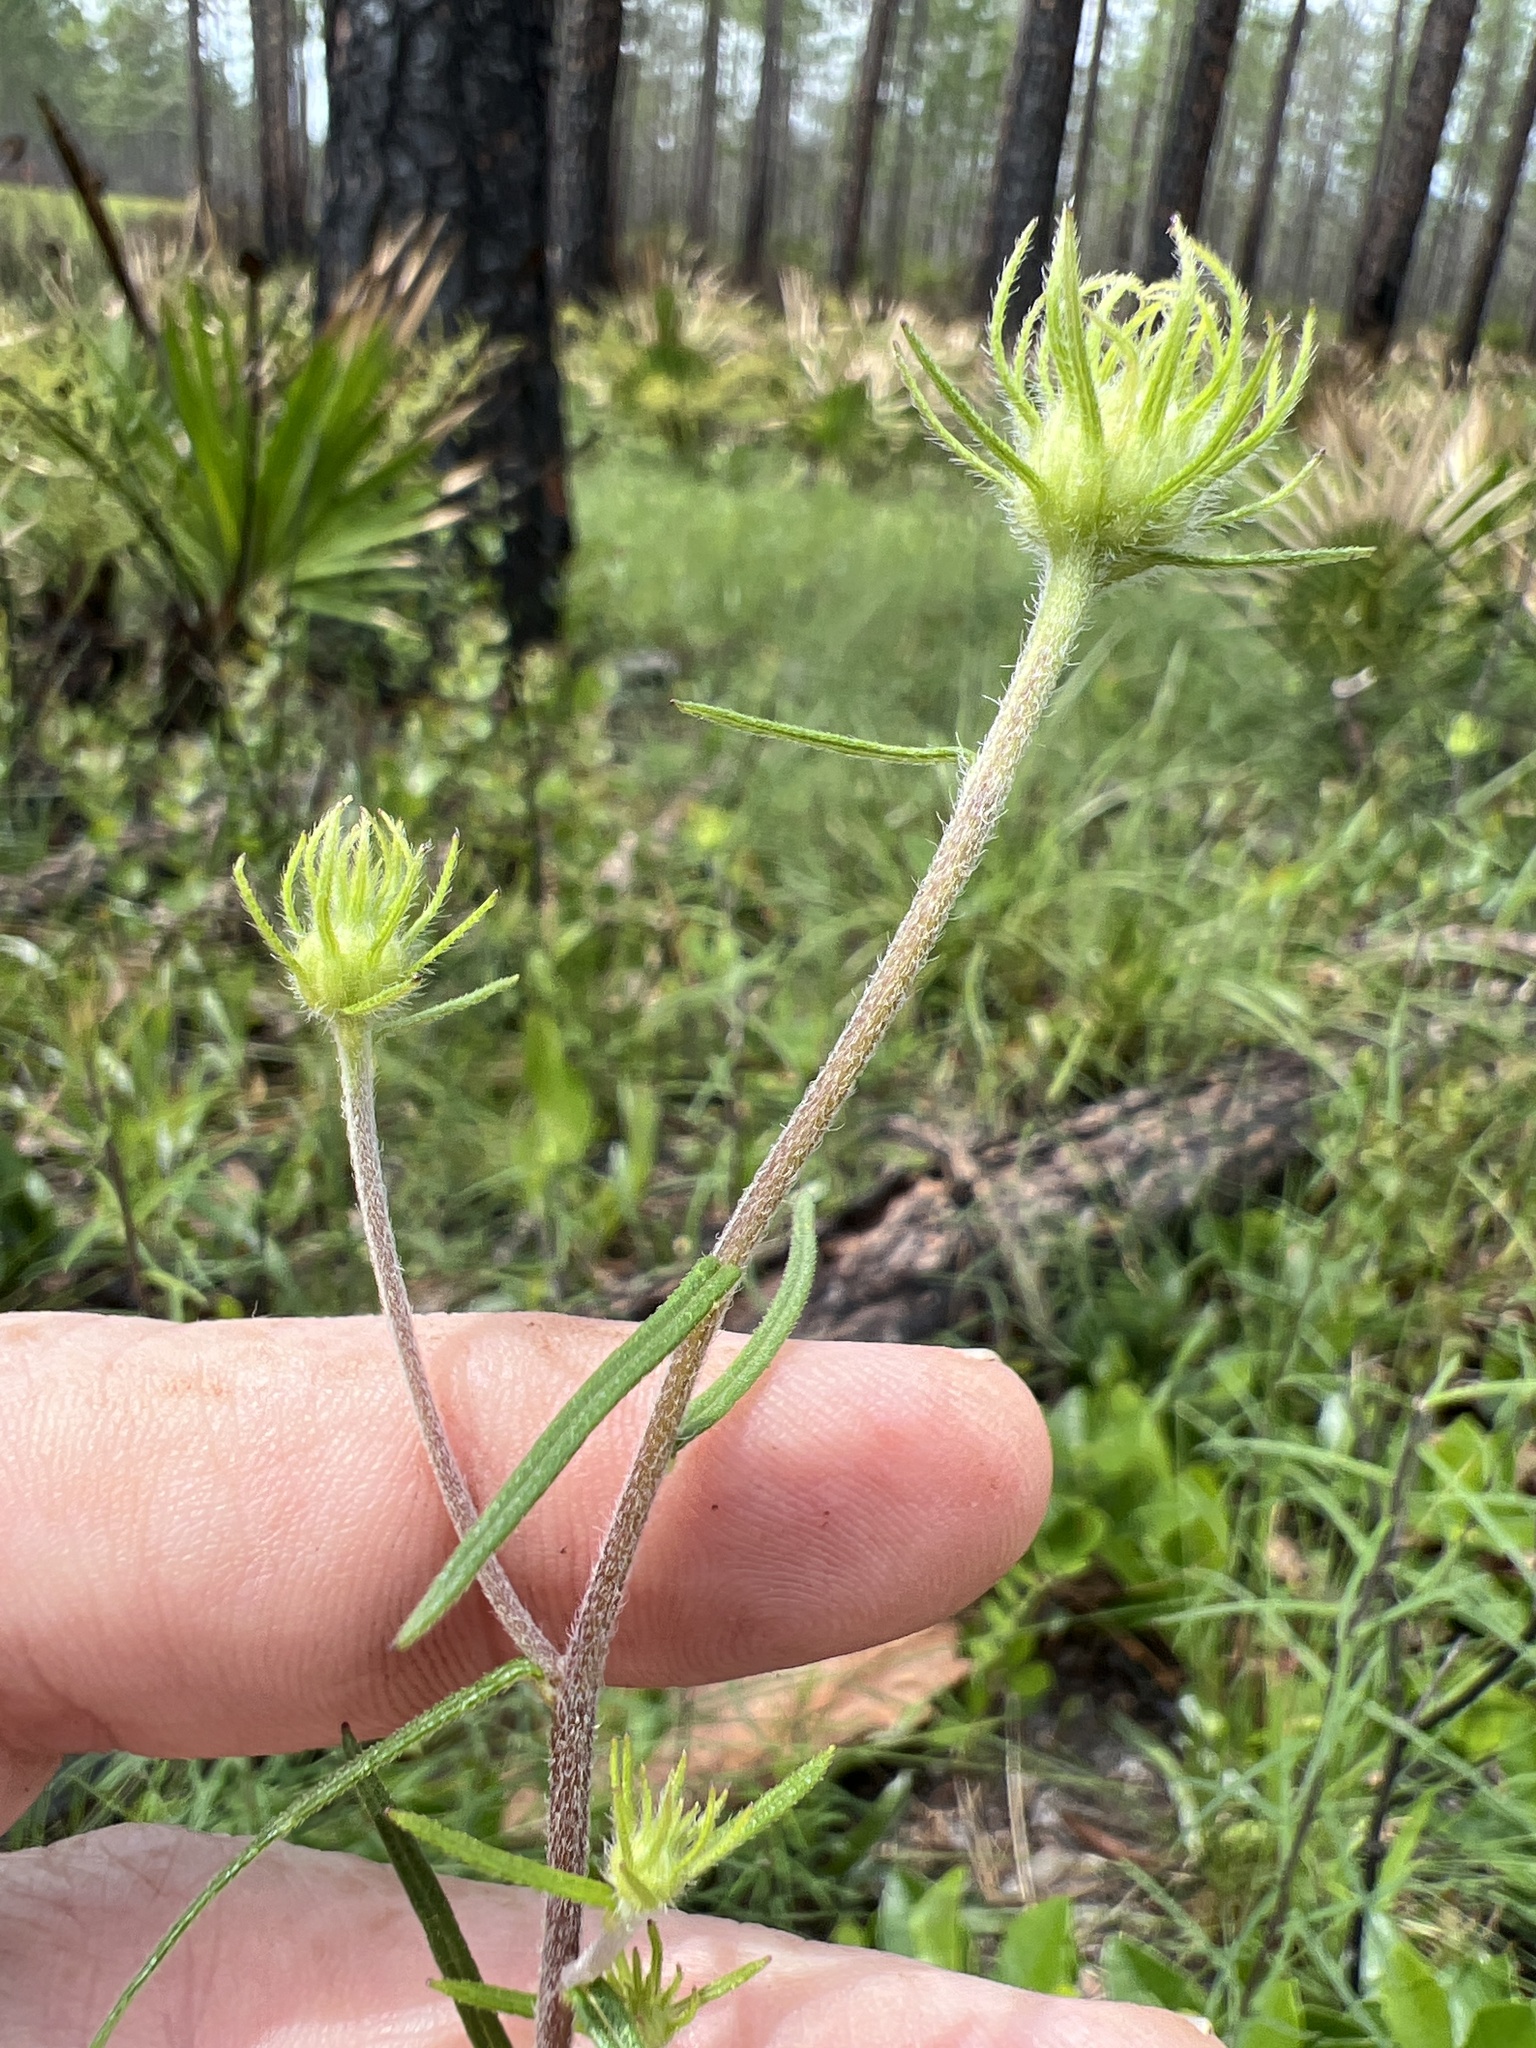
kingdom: Plantae
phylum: Tracheophyta
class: Magnoliopsida
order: Asterales
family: Asteraceae
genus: Phoebanthus
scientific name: Phoebanthus tenuifolia
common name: Pineland false sunflower
